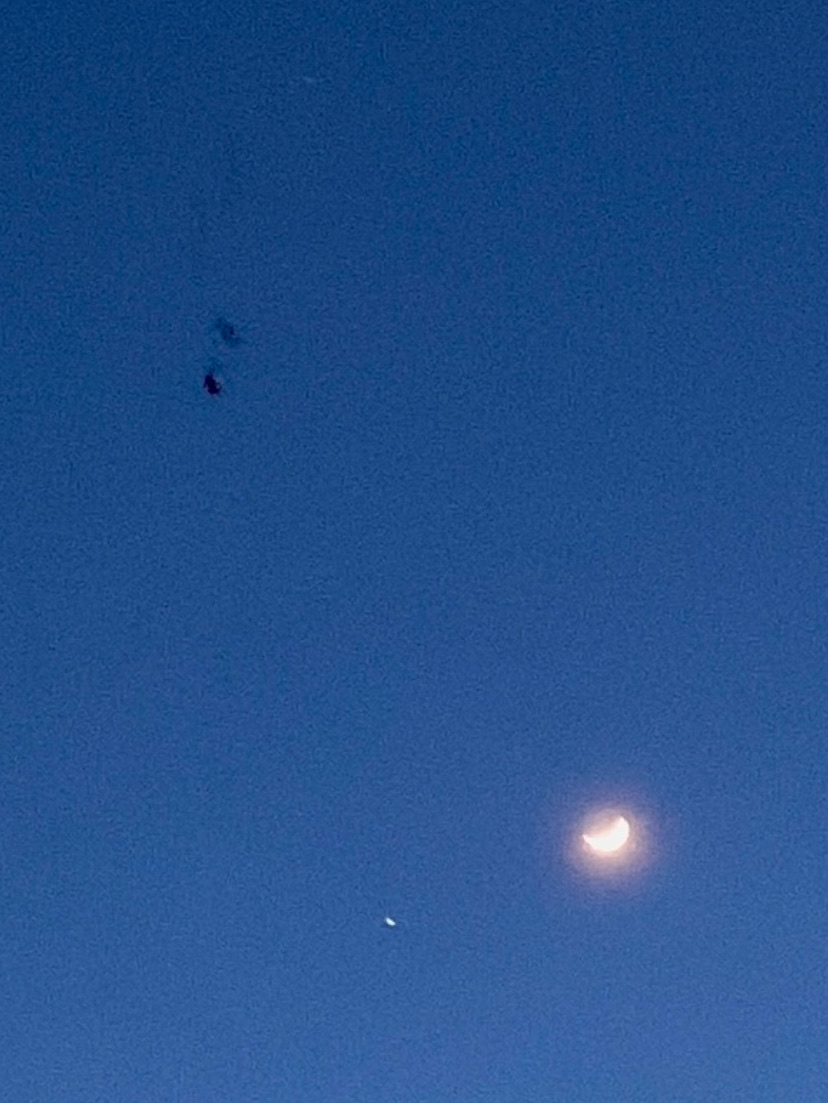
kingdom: Animalia
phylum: Chordata
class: Aves
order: Charadriiformes
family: Scolopacidae
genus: Scolopax
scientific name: Scolopax minor
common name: American woodcock
